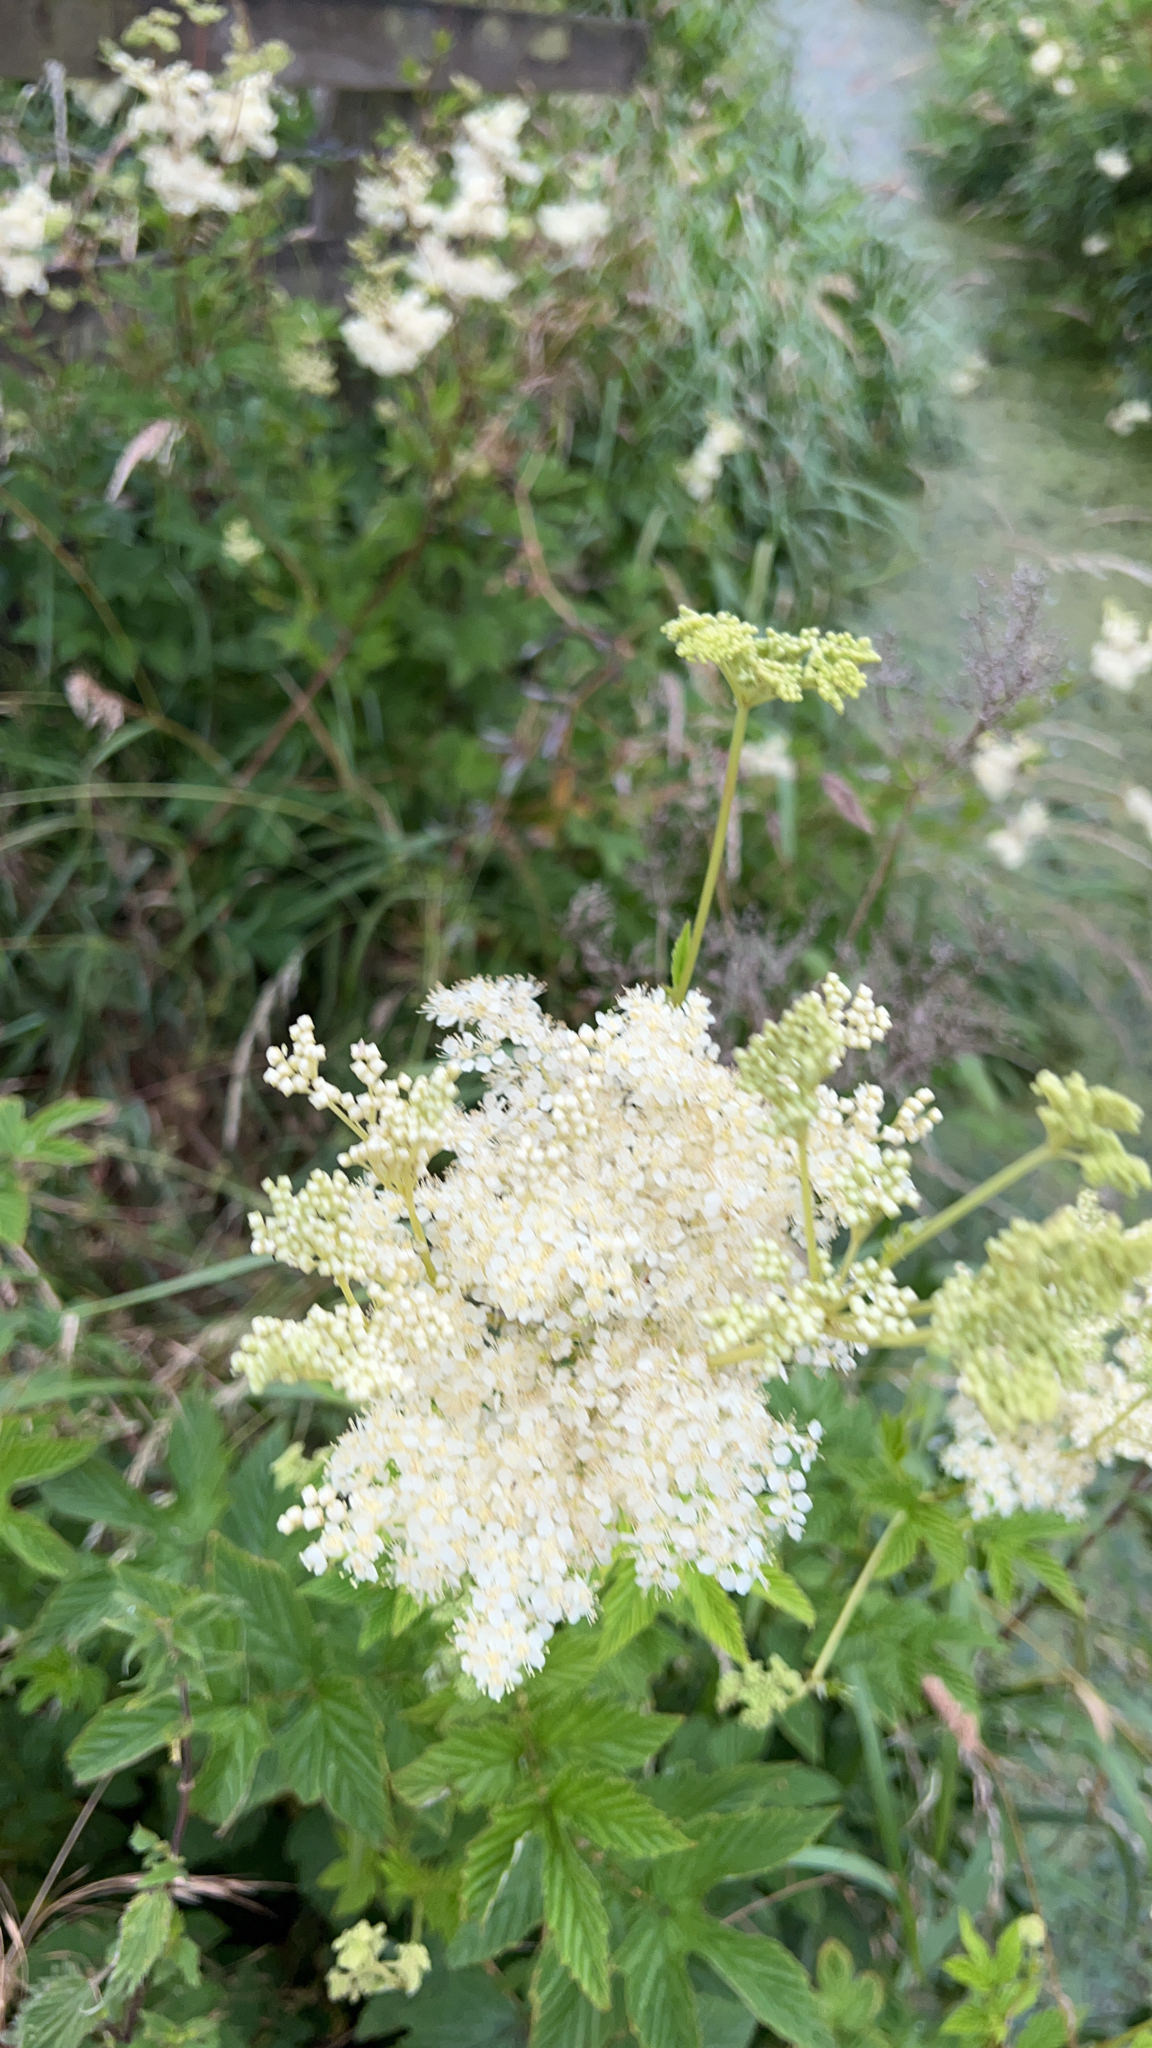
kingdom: Plantae
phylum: Tracheophyta
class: Magnoliopsida
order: Rosales
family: Rosaceae
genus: Filipendula
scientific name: Filipendula ulmaria
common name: Meadowsweet
